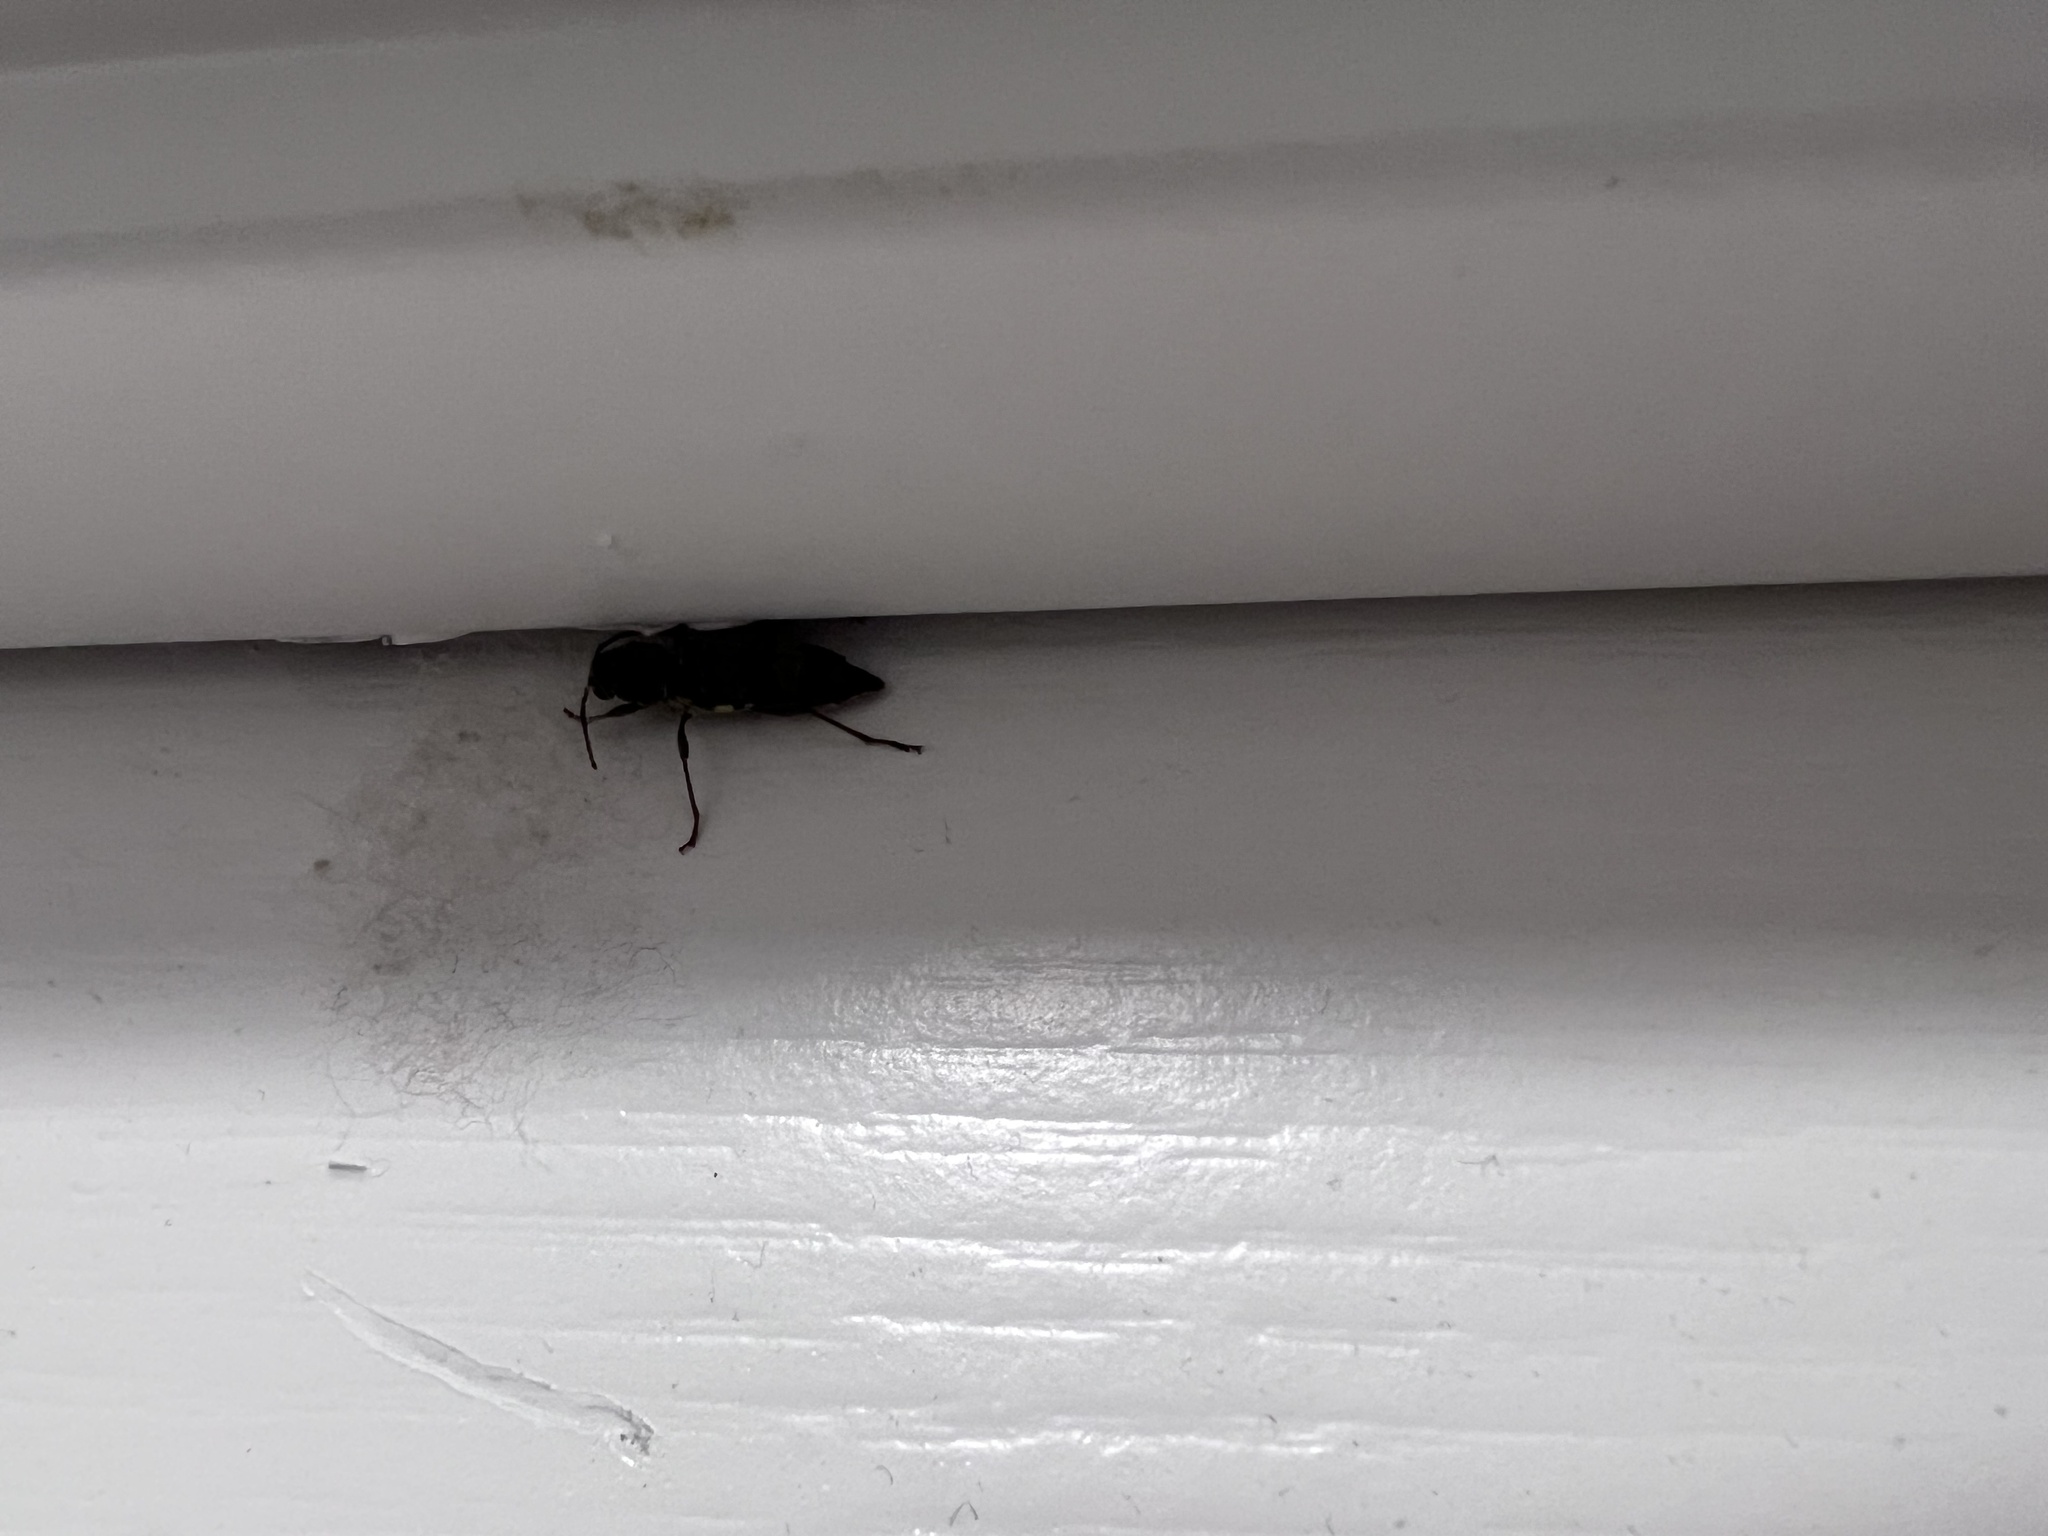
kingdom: Animalia
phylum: Arthropoda
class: Insecta
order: Coleoptera
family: Cerambycidae
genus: Xylotrechus
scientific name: Xylotrechus colonus
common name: Long-horned beetle
